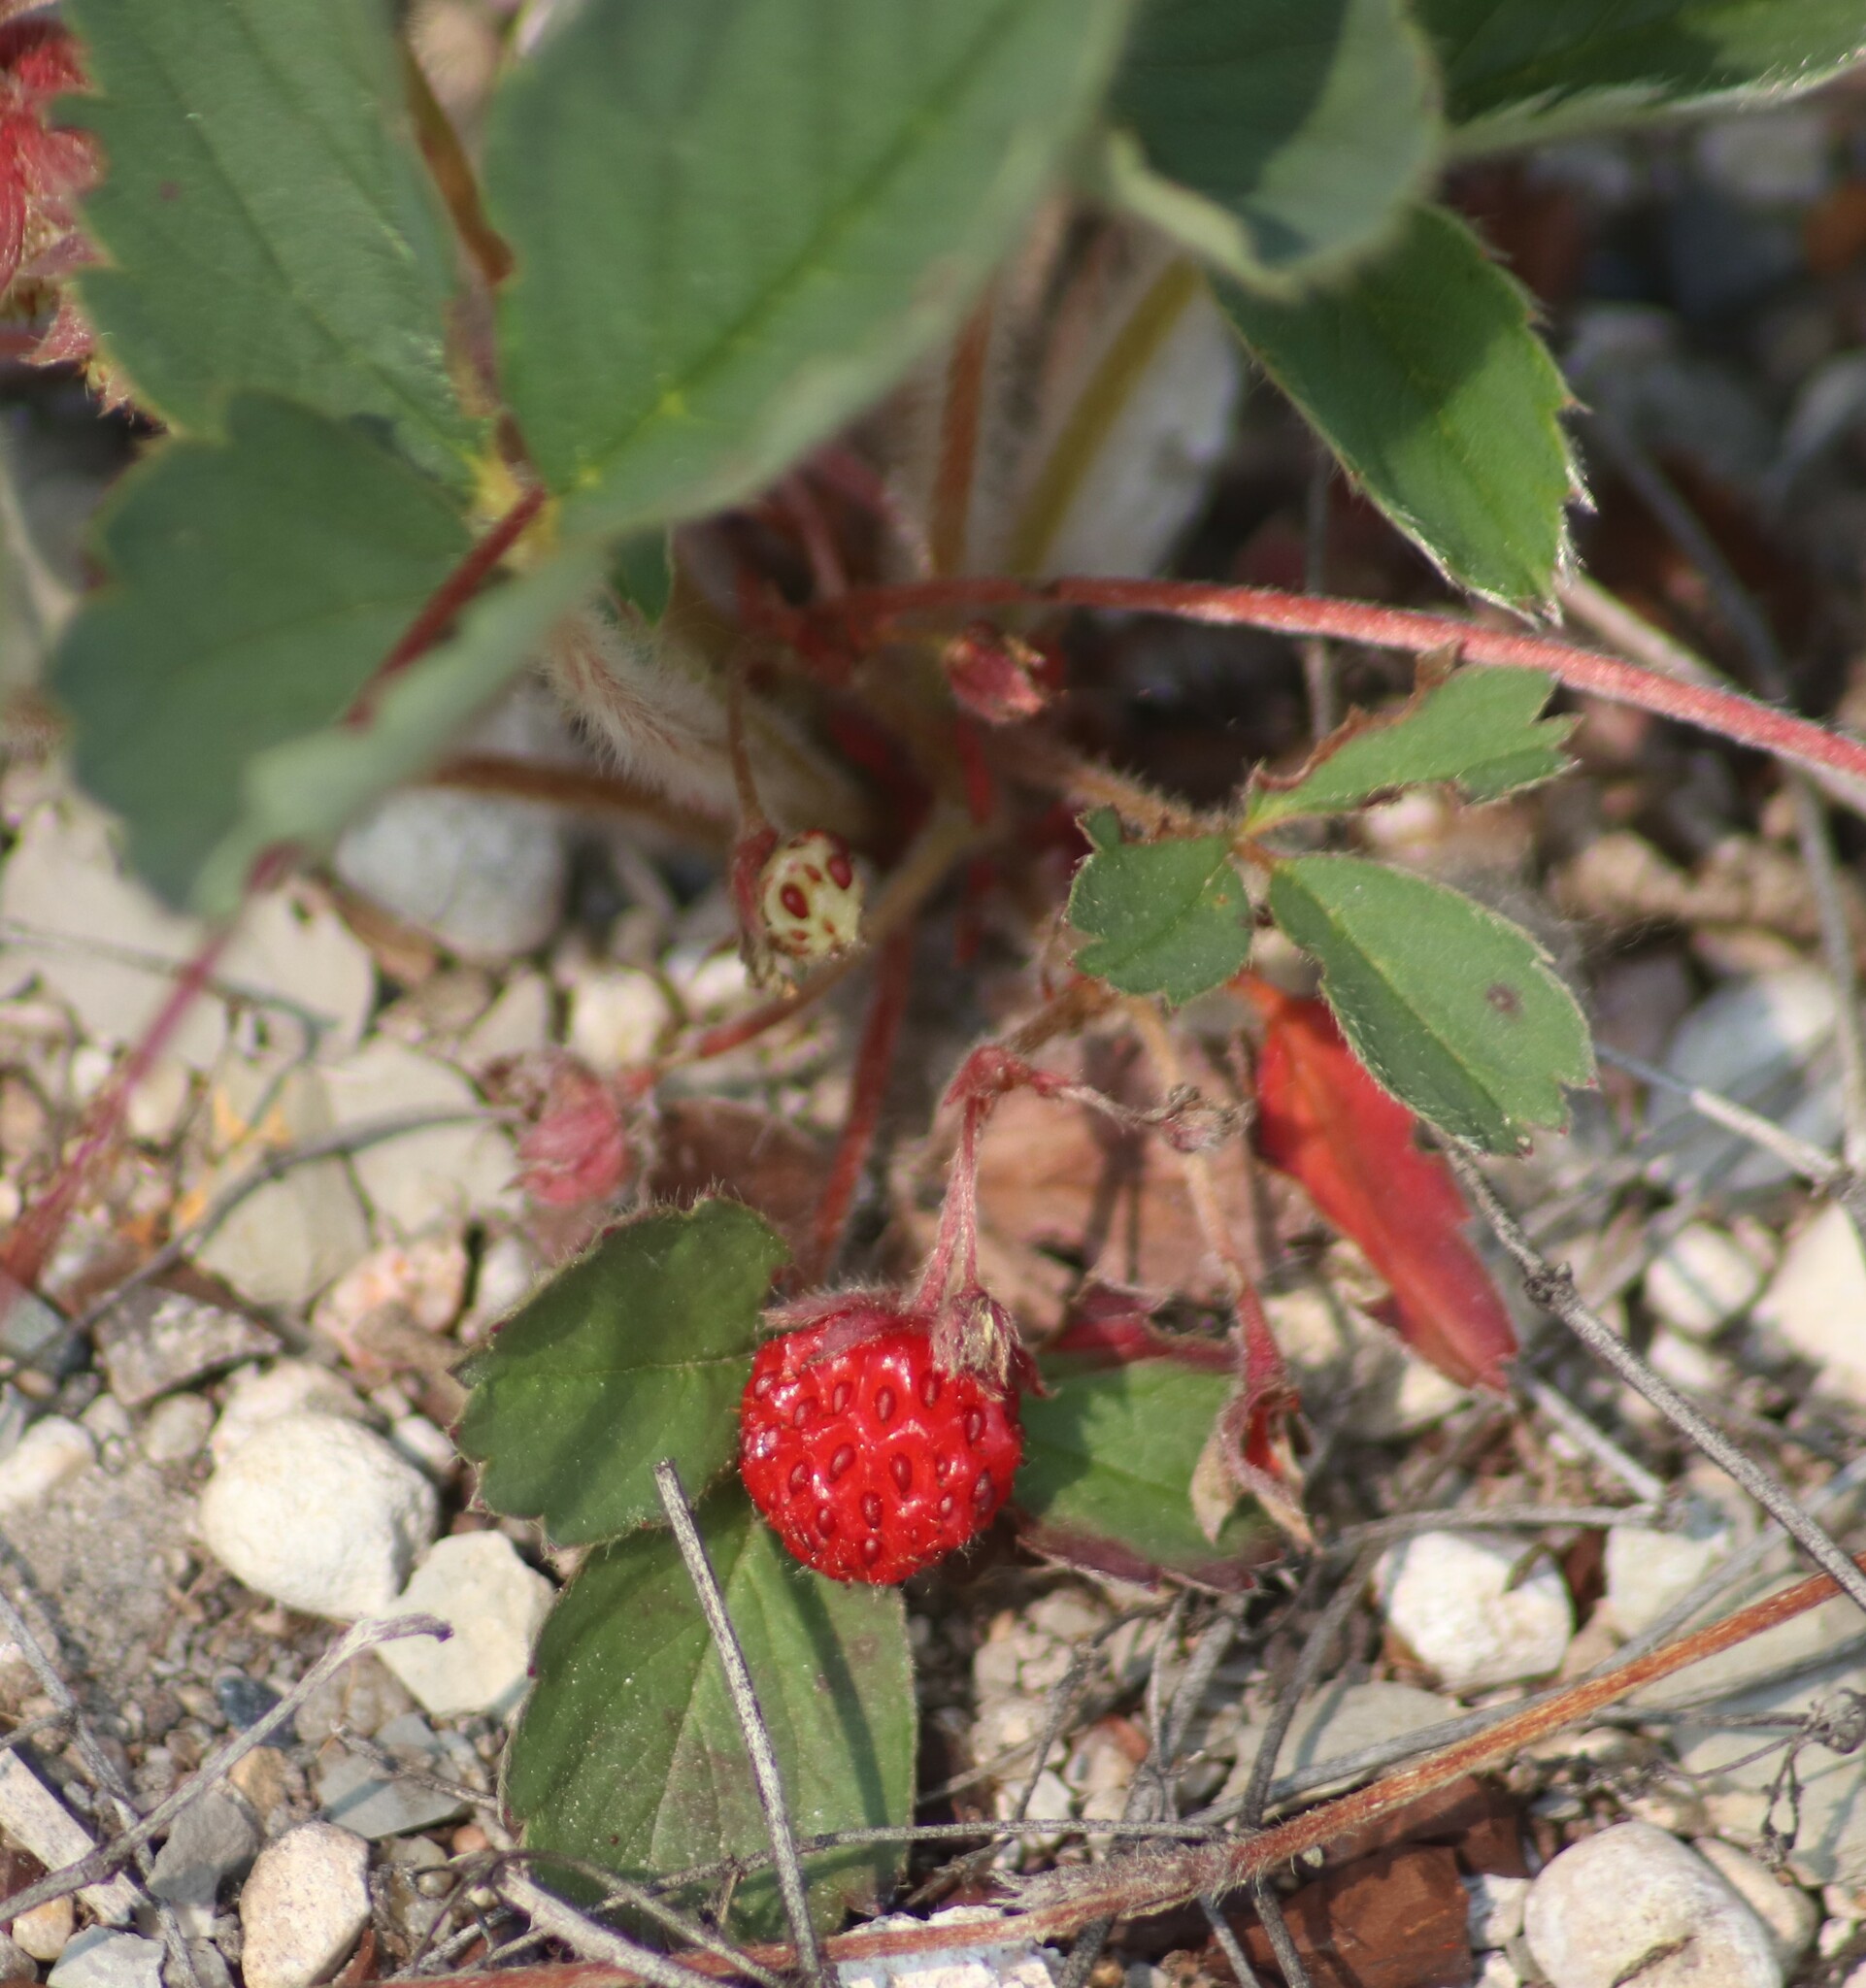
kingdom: Plantae
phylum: Tracheophyta
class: Magnoliopsida
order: Rosales
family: Rosaceae
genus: Fragaria
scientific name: Fragaria virginiana
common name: Thickleaved wild strawberry
